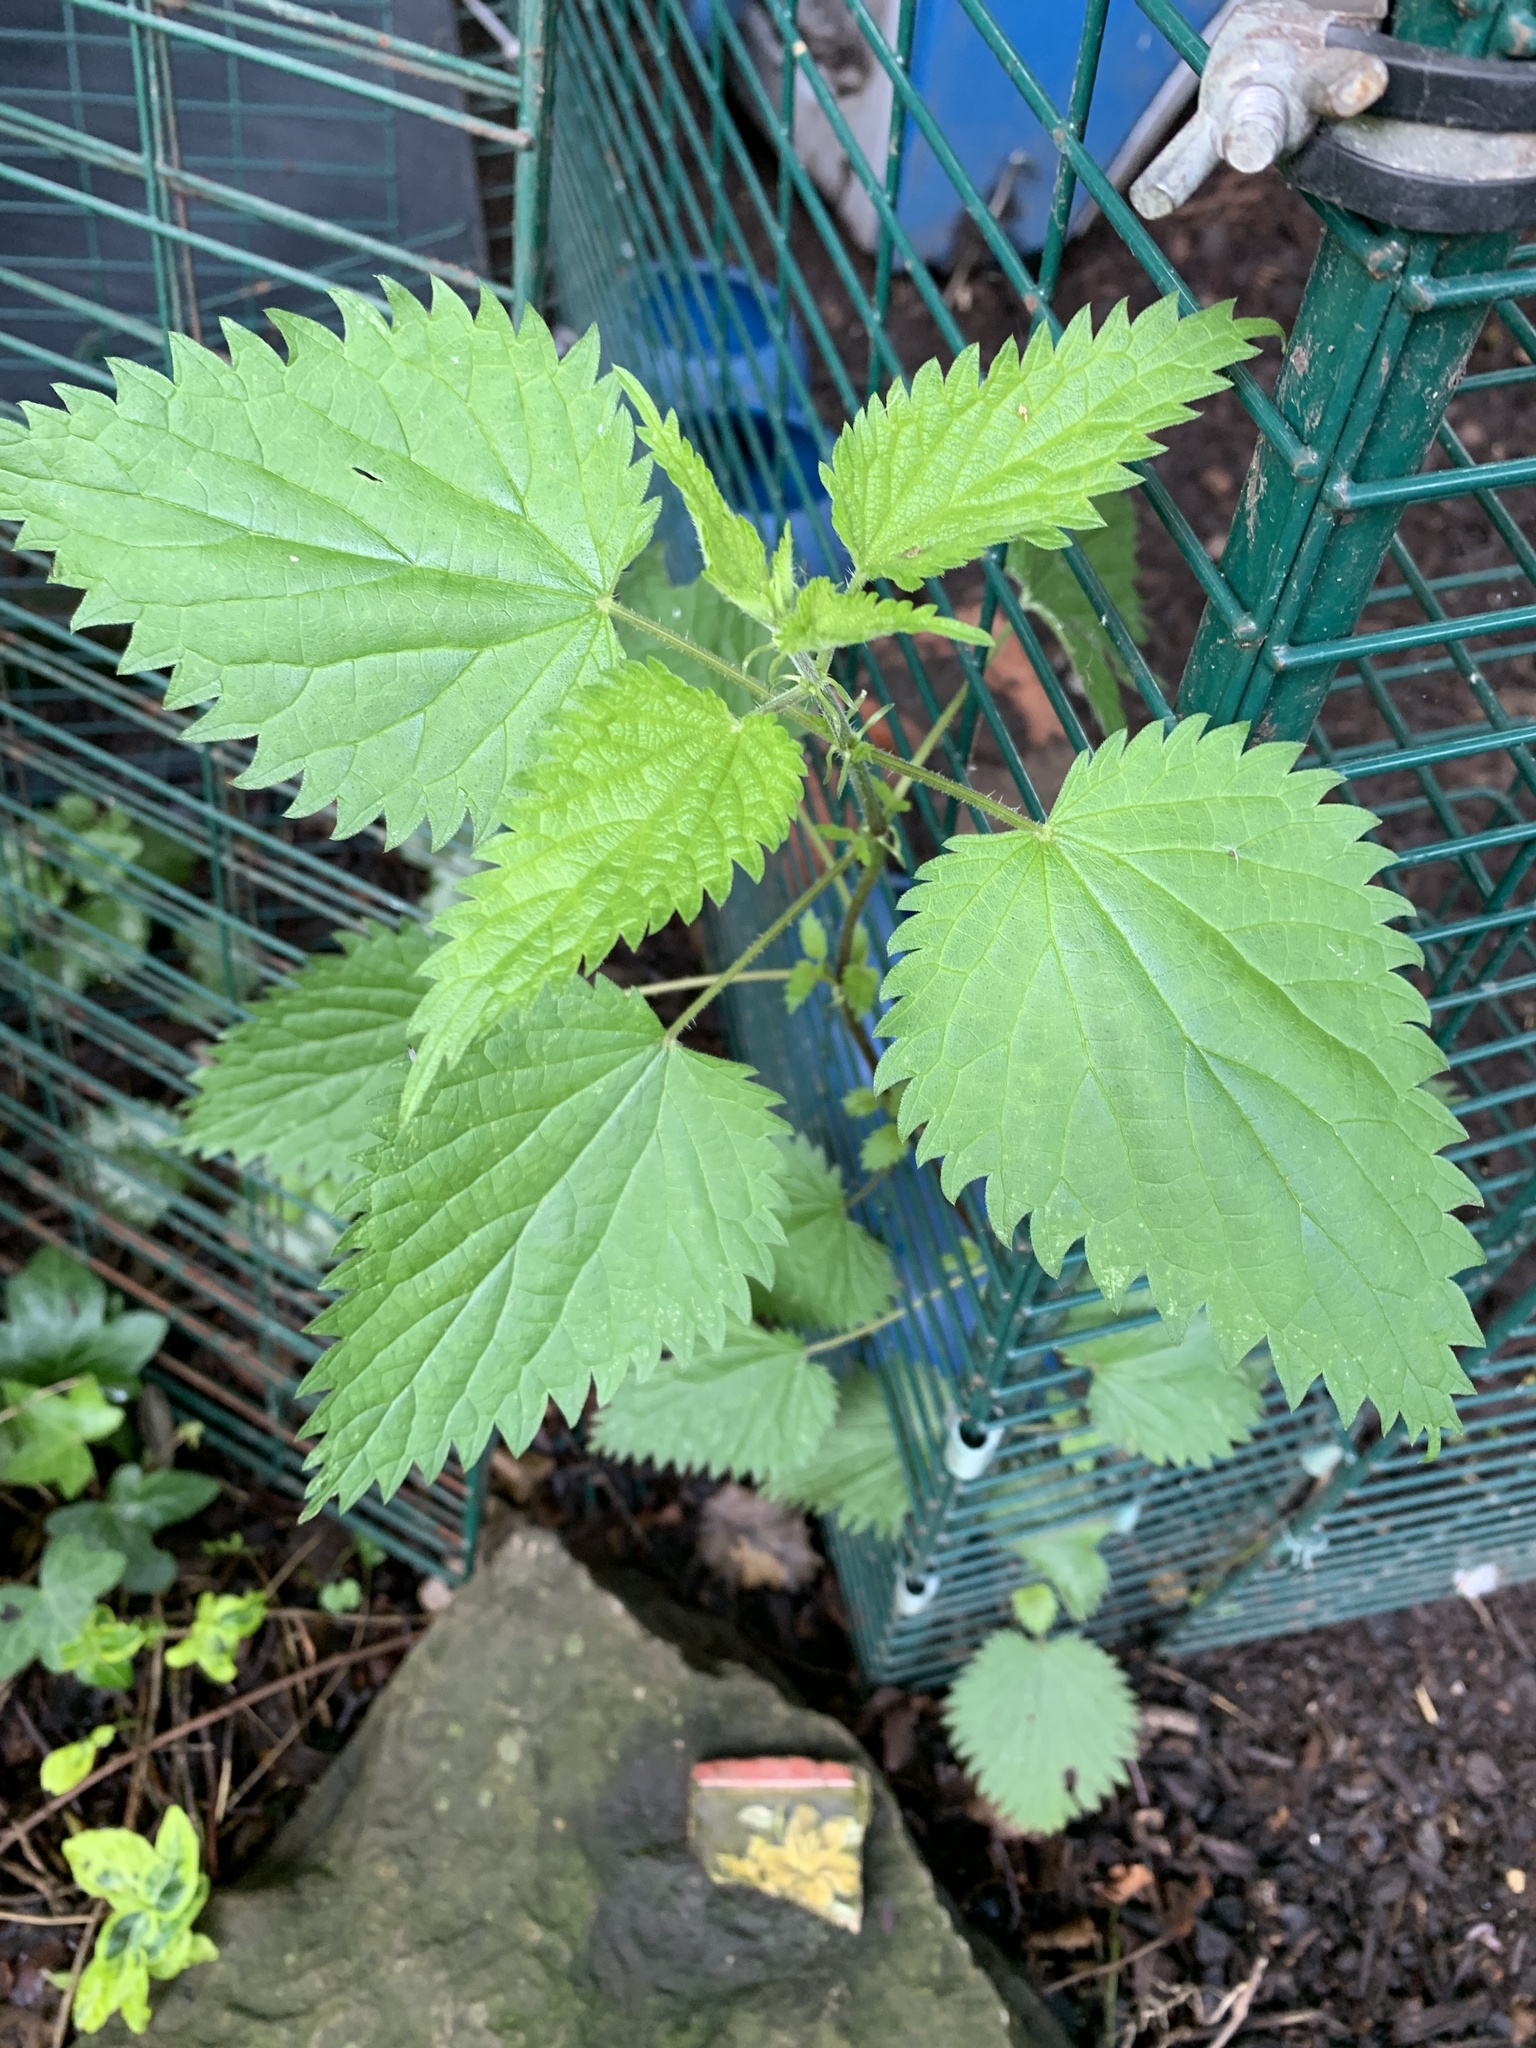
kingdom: Plantae
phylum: Tracheophyta
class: Magnoliopsida
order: Rosales
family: Urticaceae
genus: Urtica
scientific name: Urtica dioica
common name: Common nettle
